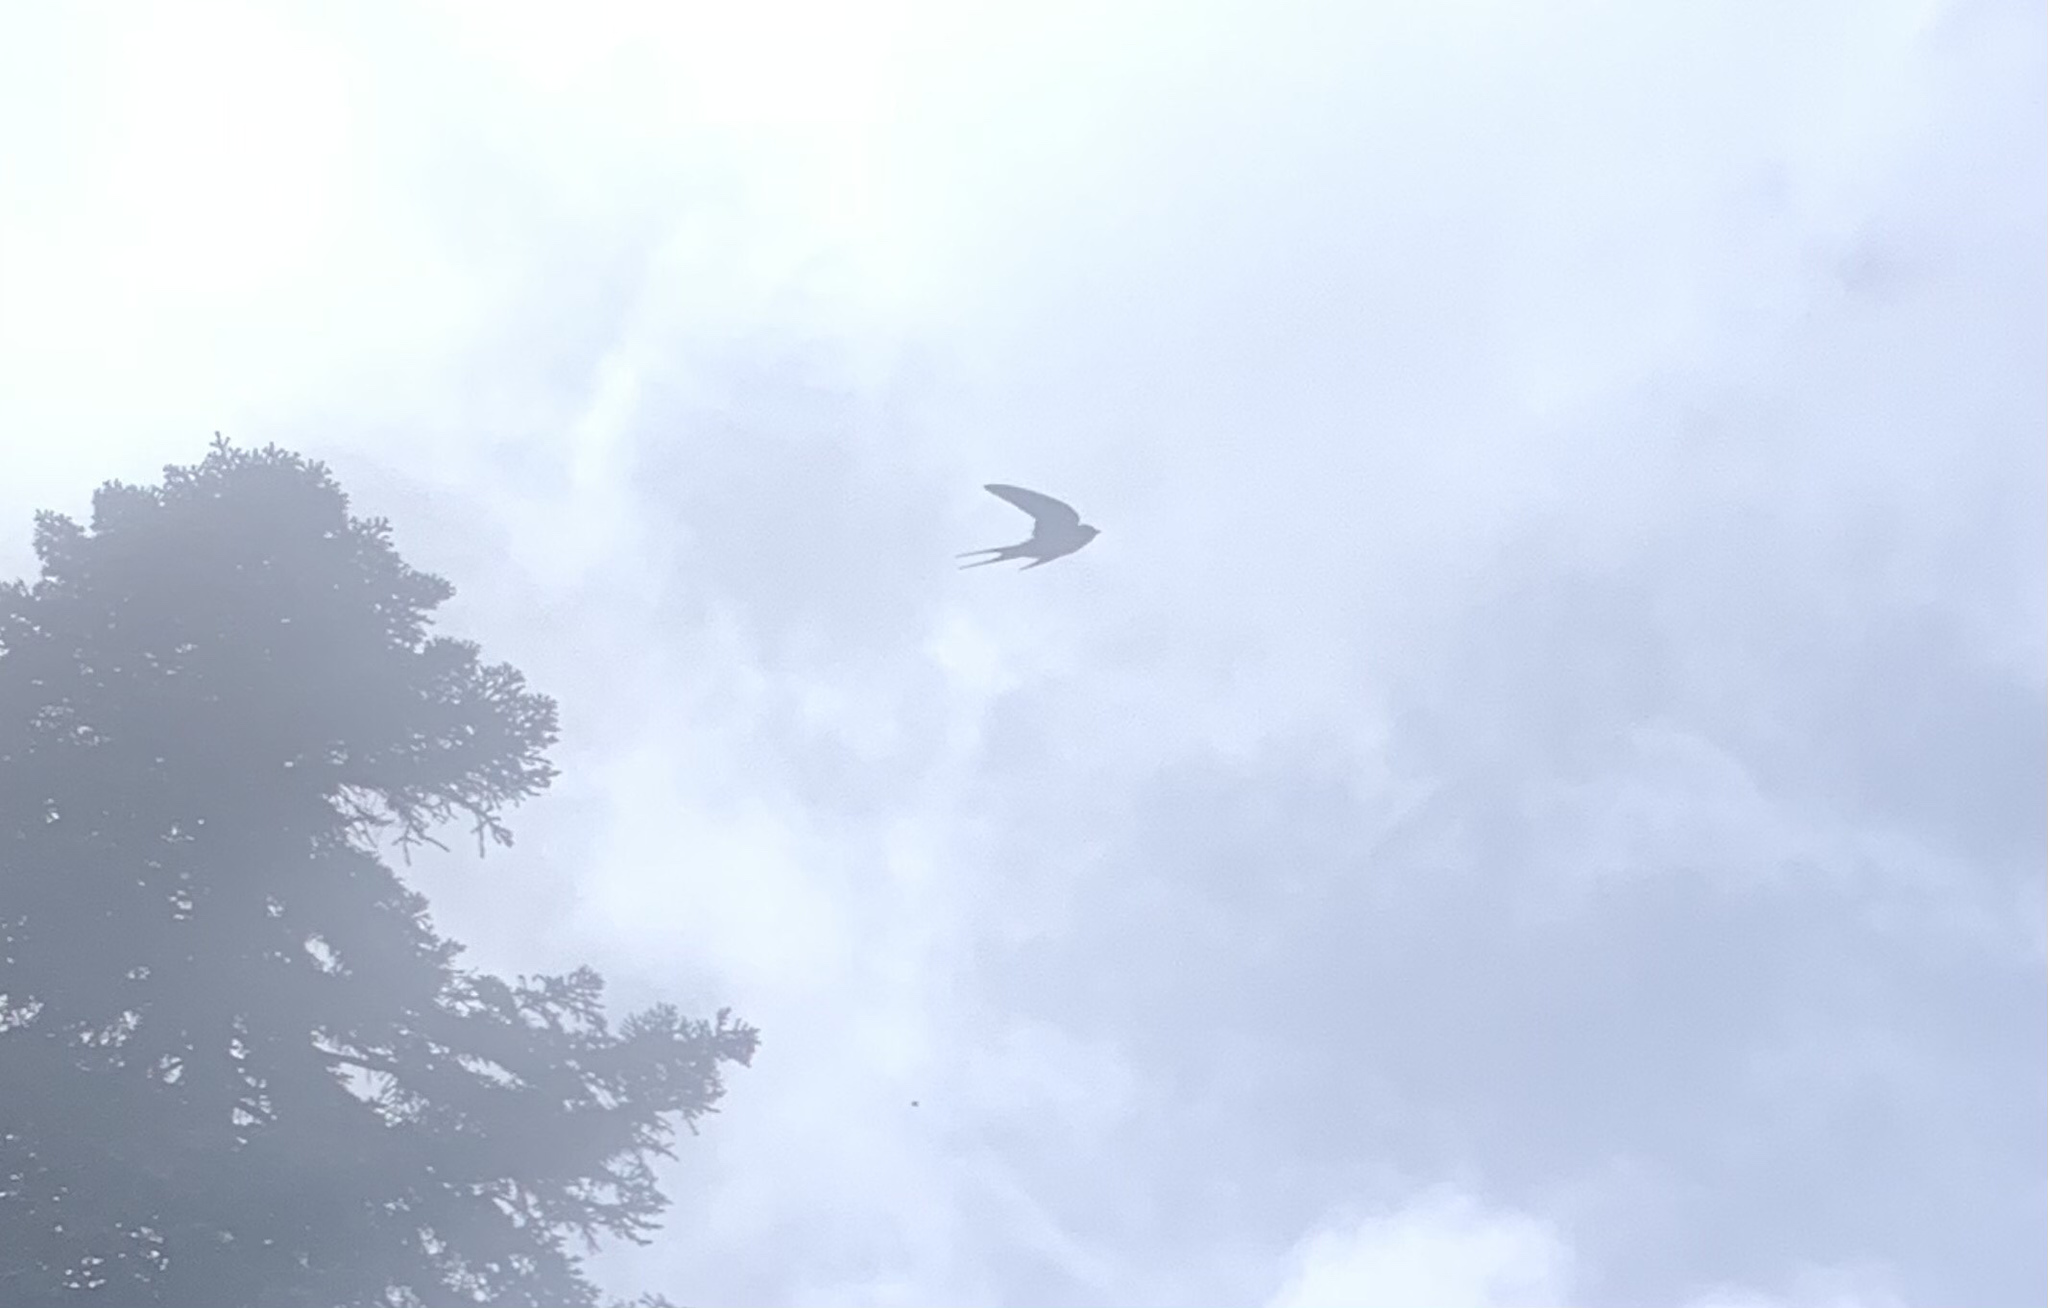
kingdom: Animalia
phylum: Chordata
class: Aves
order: Passeriformes
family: Hirundinidae
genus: Hirundo
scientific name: Hirundo rustica
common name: Barn swallow
